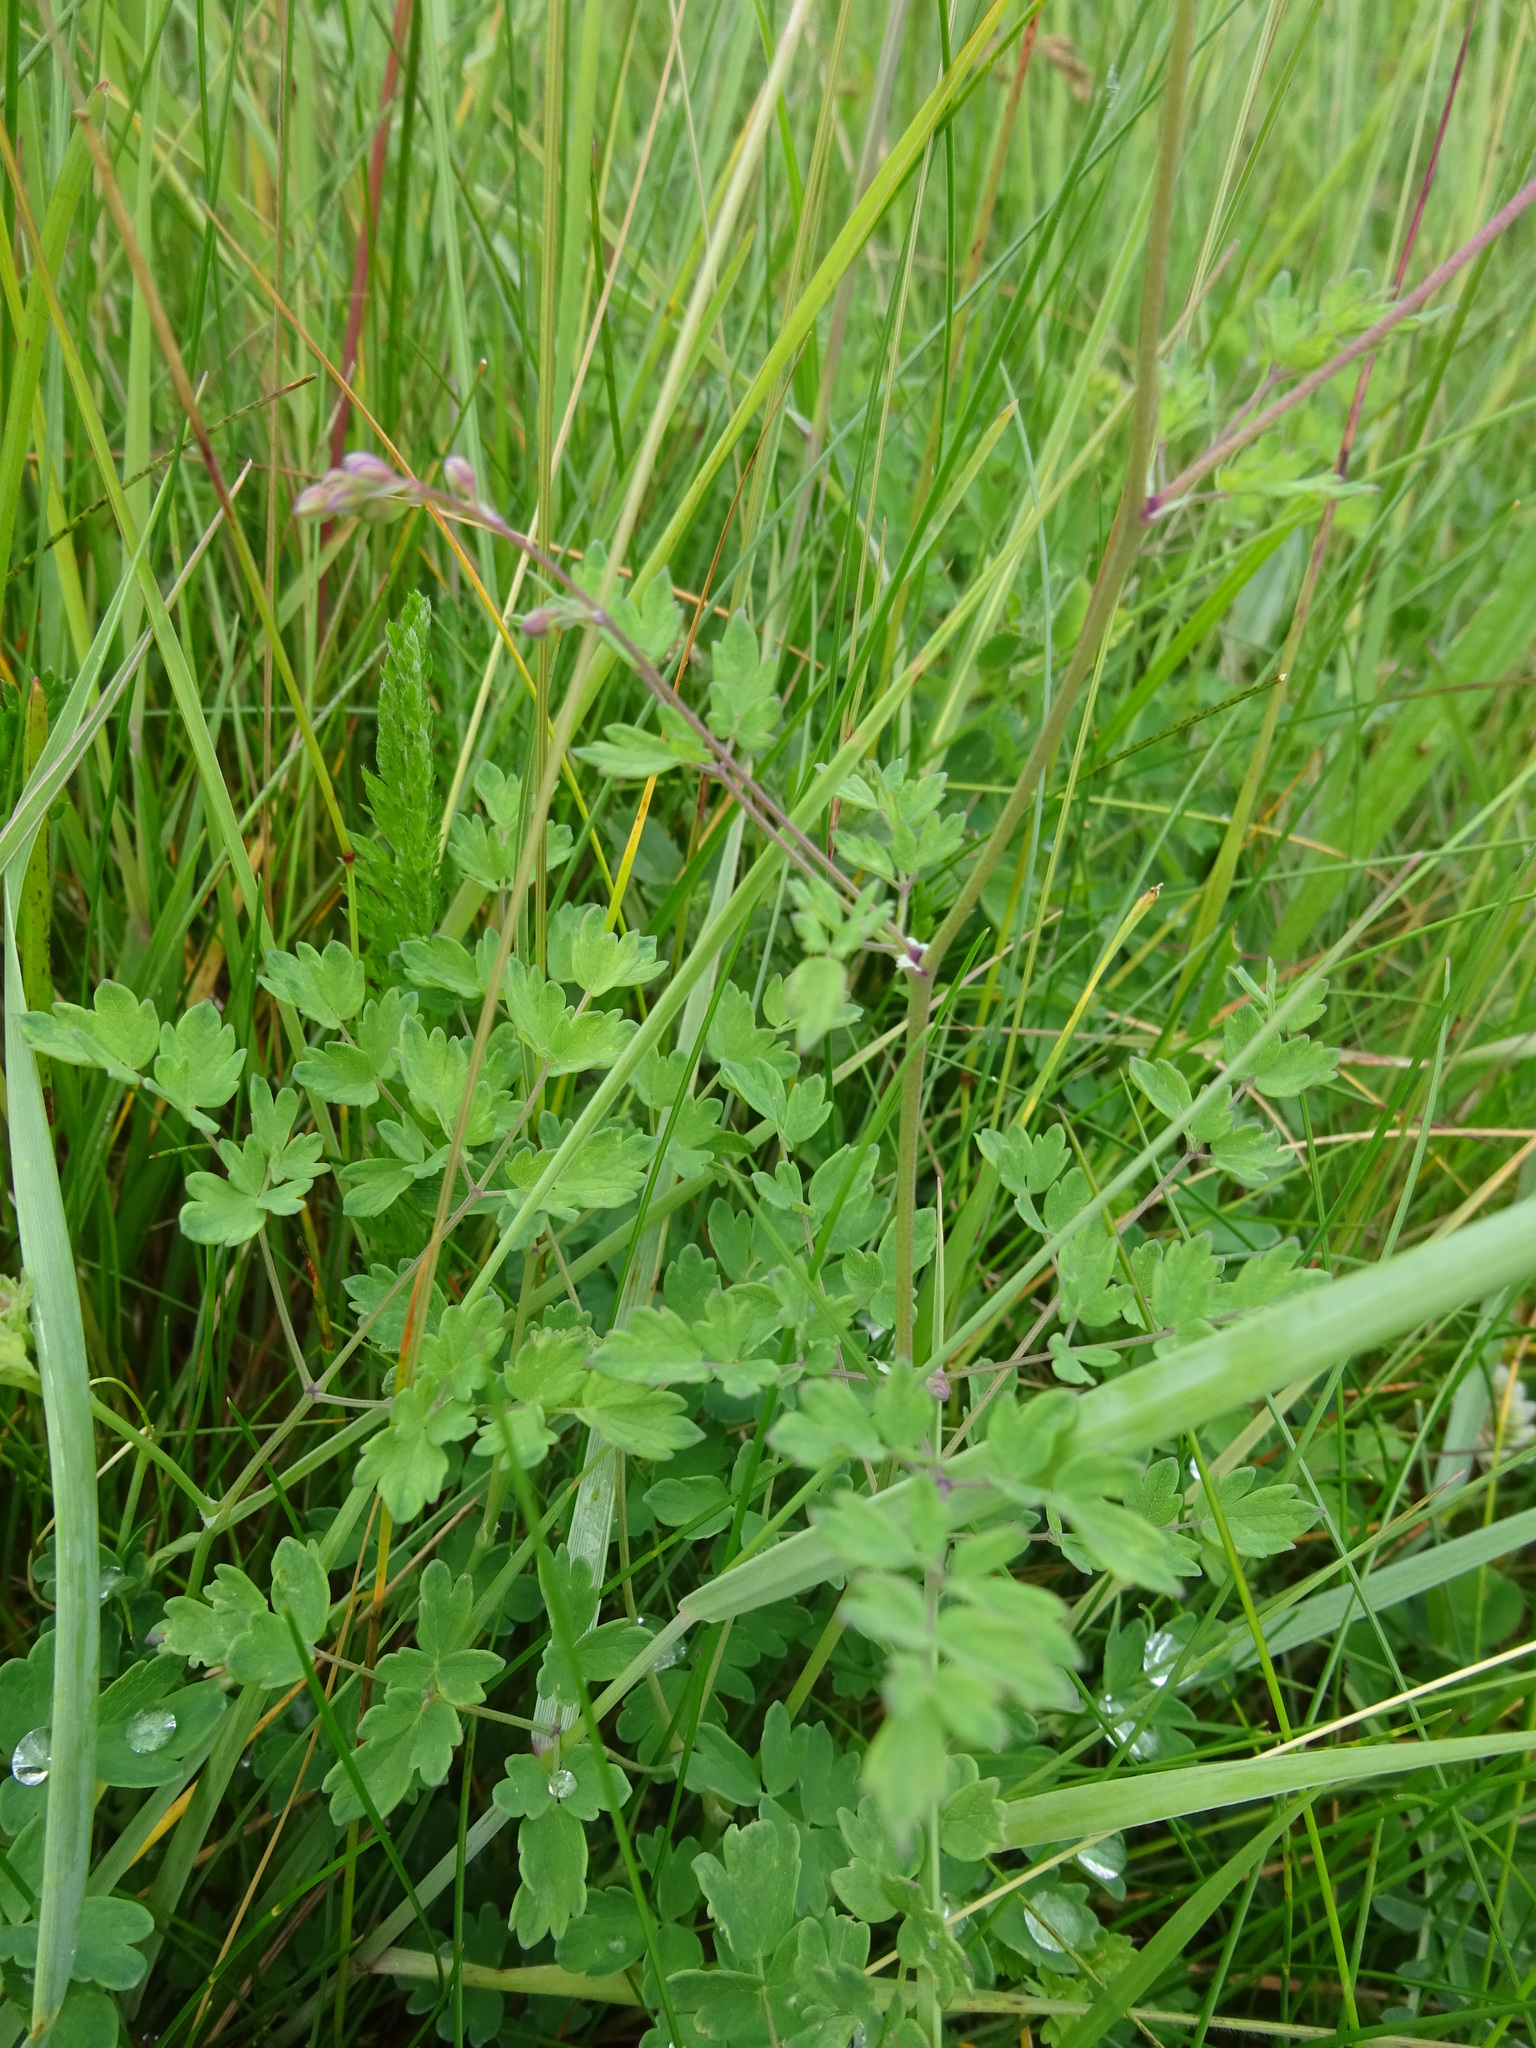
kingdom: Plantae
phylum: Tracheophyta
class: Magnoliopsida
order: Ranunculales
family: Ranunculaceae
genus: Thalictrum
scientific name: Thalictrum minus
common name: Lesser meadow-rue
